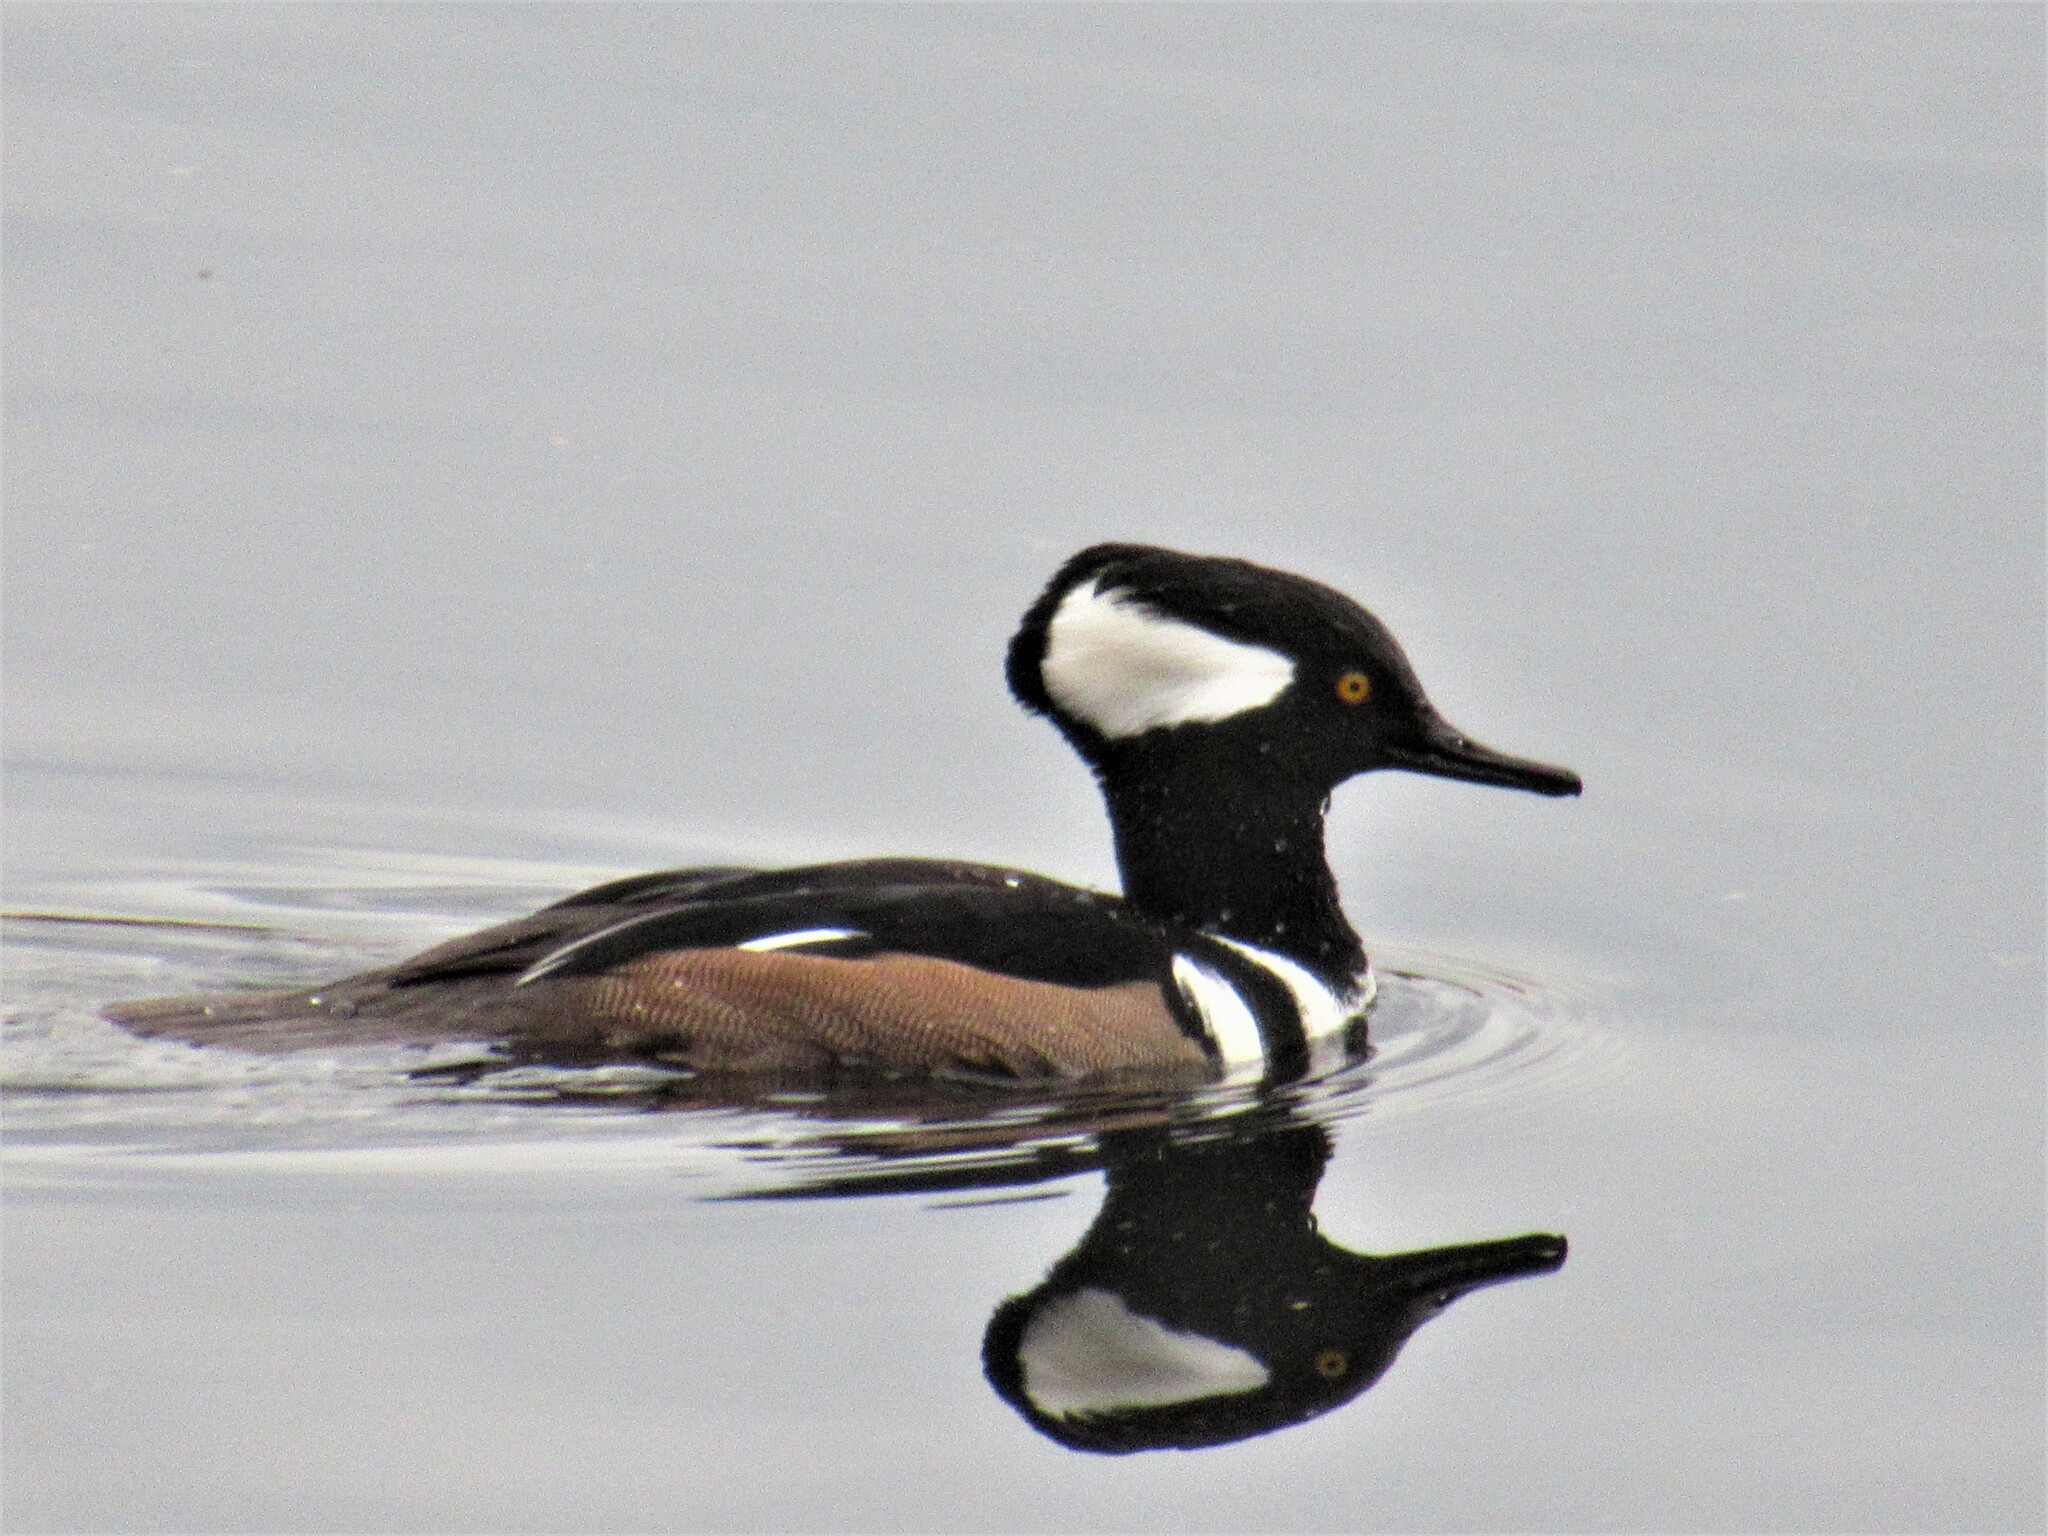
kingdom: Animalia
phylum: Chordata
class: Aves
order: Anseriformes
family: Anatidae
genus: Lophodytes
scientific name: Lophodytes cucullatus
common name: Hooded merganser
